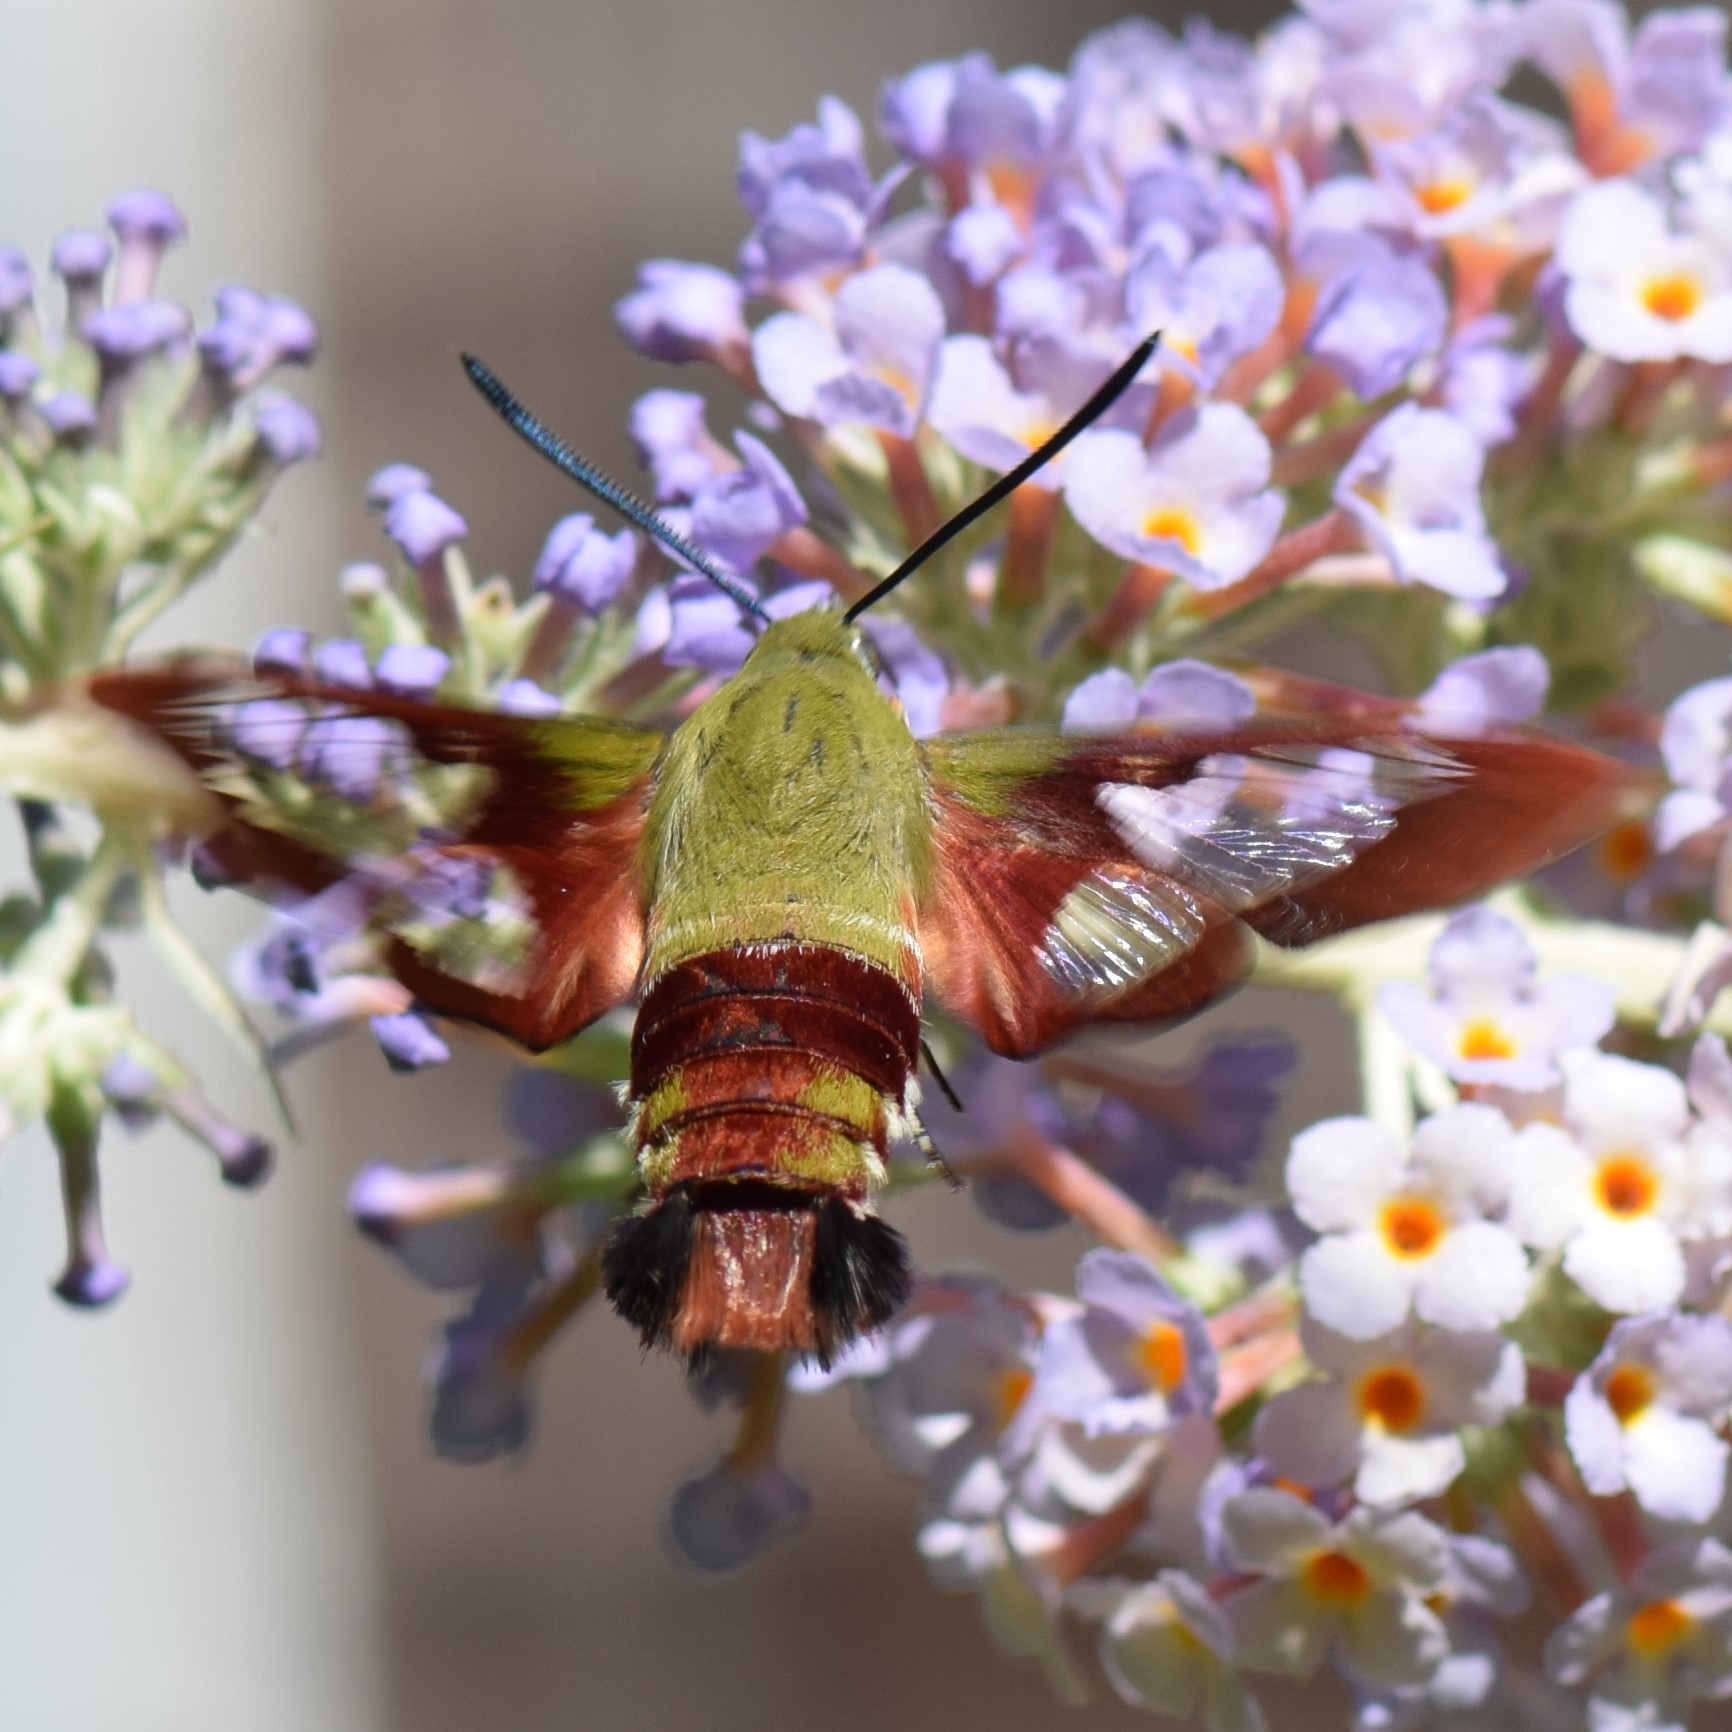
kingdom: Animalia
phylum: Arthropoda
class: Insecta
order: Lepidoptera
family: Sphingidae
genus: Hemaris
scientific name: Hemaris thysbe
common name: Common clear-wing
